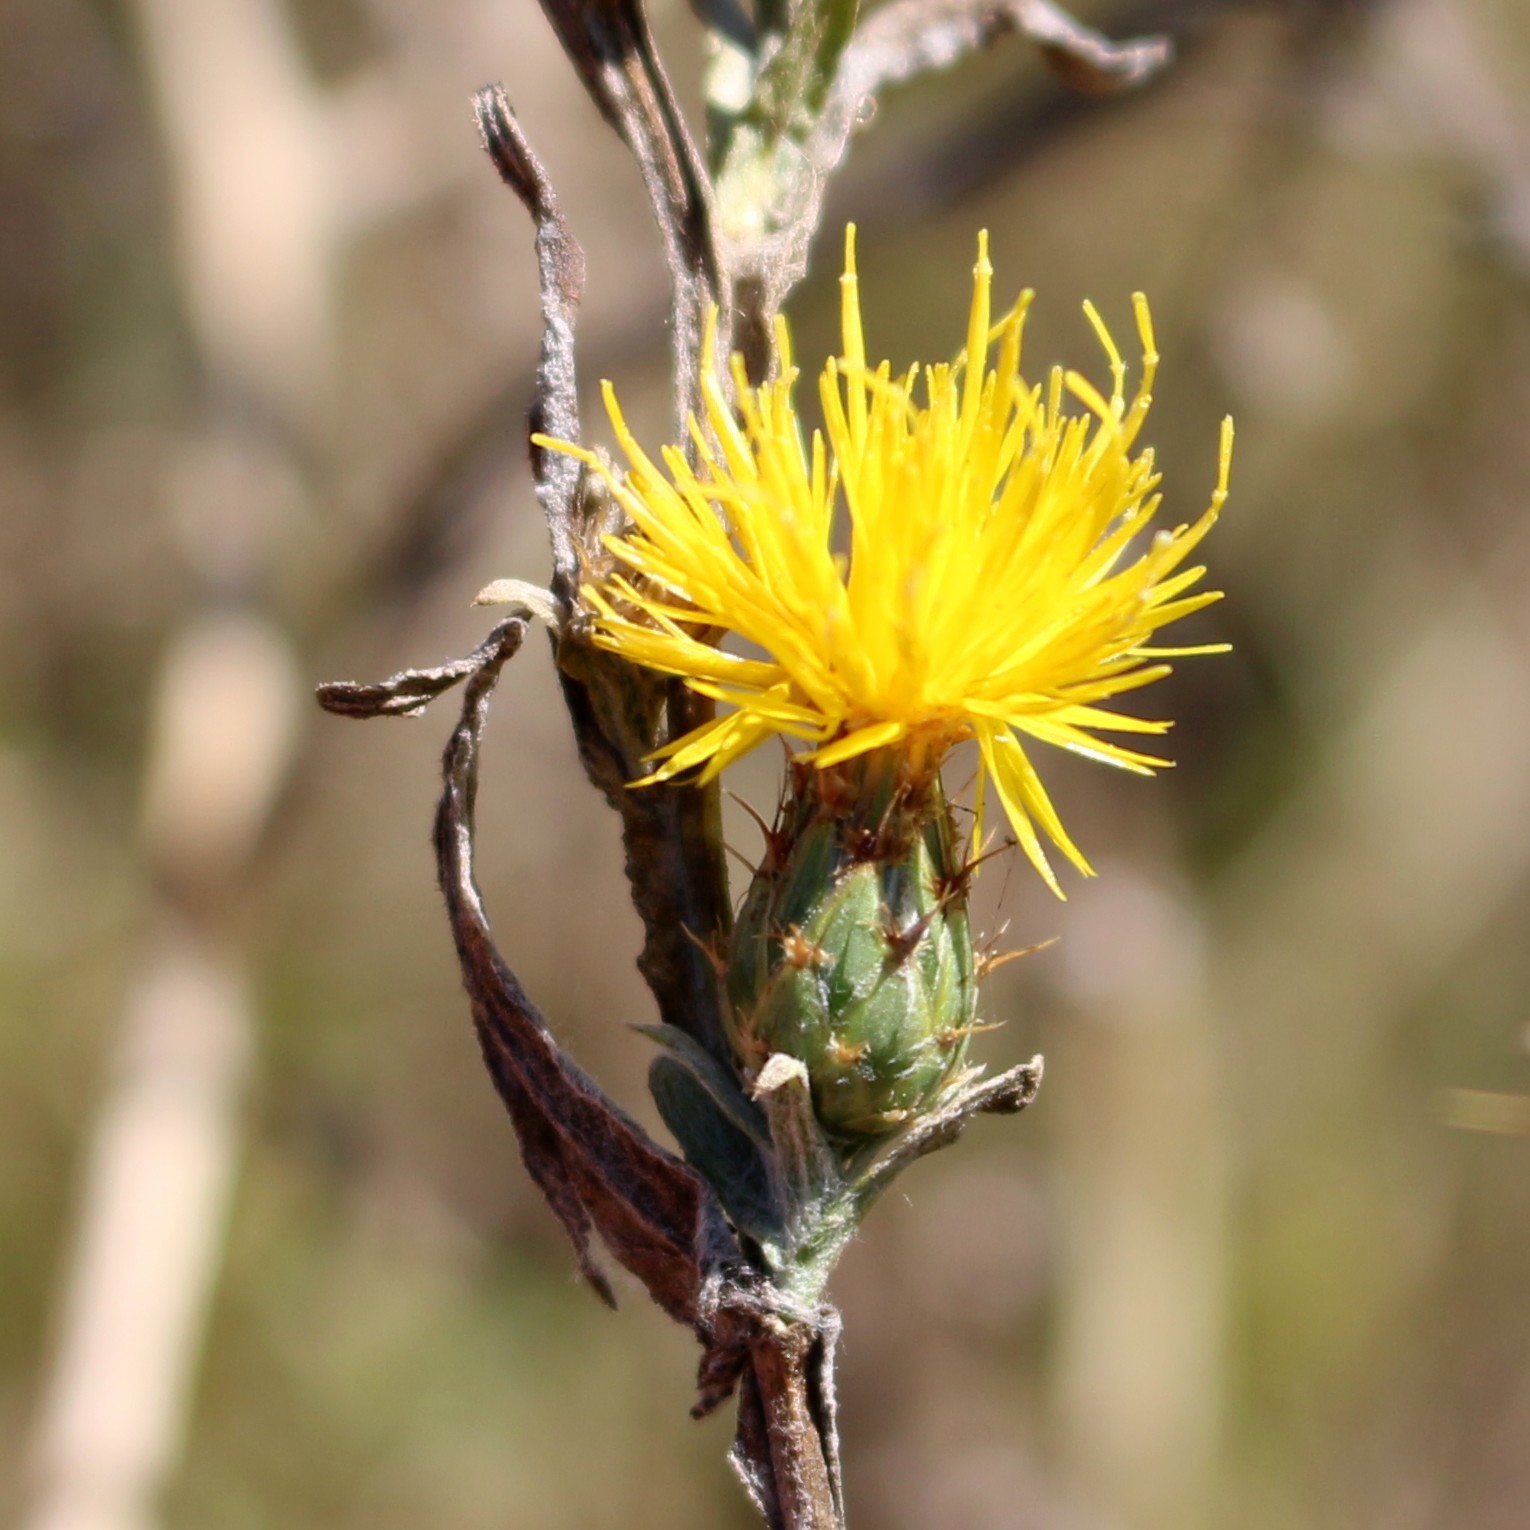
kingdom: Plantae
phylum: Tracheophyta
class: Magnoliopsida
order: Asterales
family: Asteraceae
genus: Centaurea
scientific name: Centaurea solstitialis
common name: Yellow star-thistle
